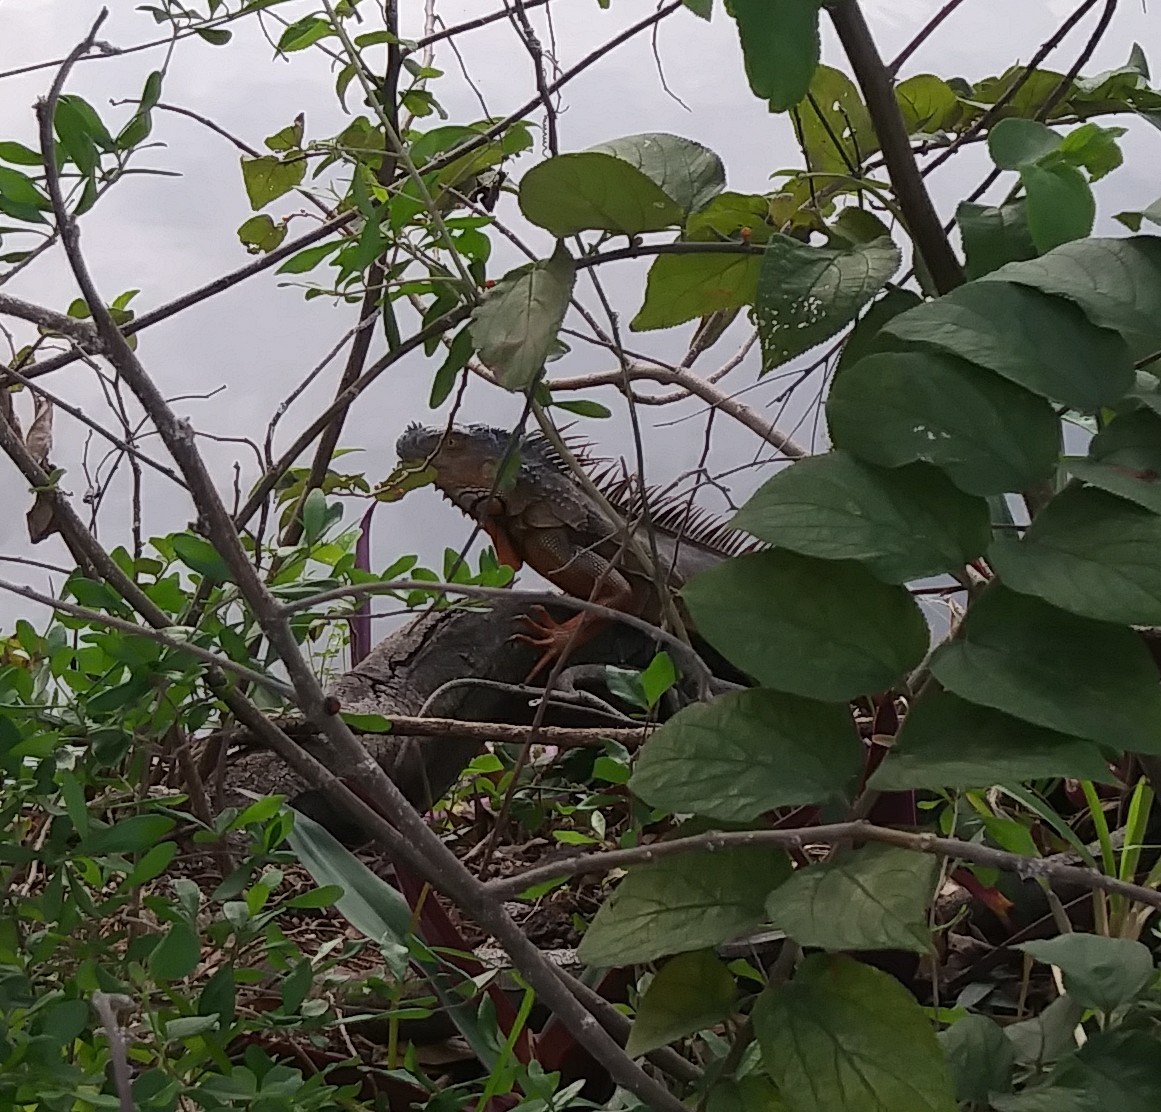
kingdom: Animalia
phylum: Chordata
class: Squamata
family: Iguanidae
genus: Iguana
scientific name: Iguana iguana
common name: Green iguana
